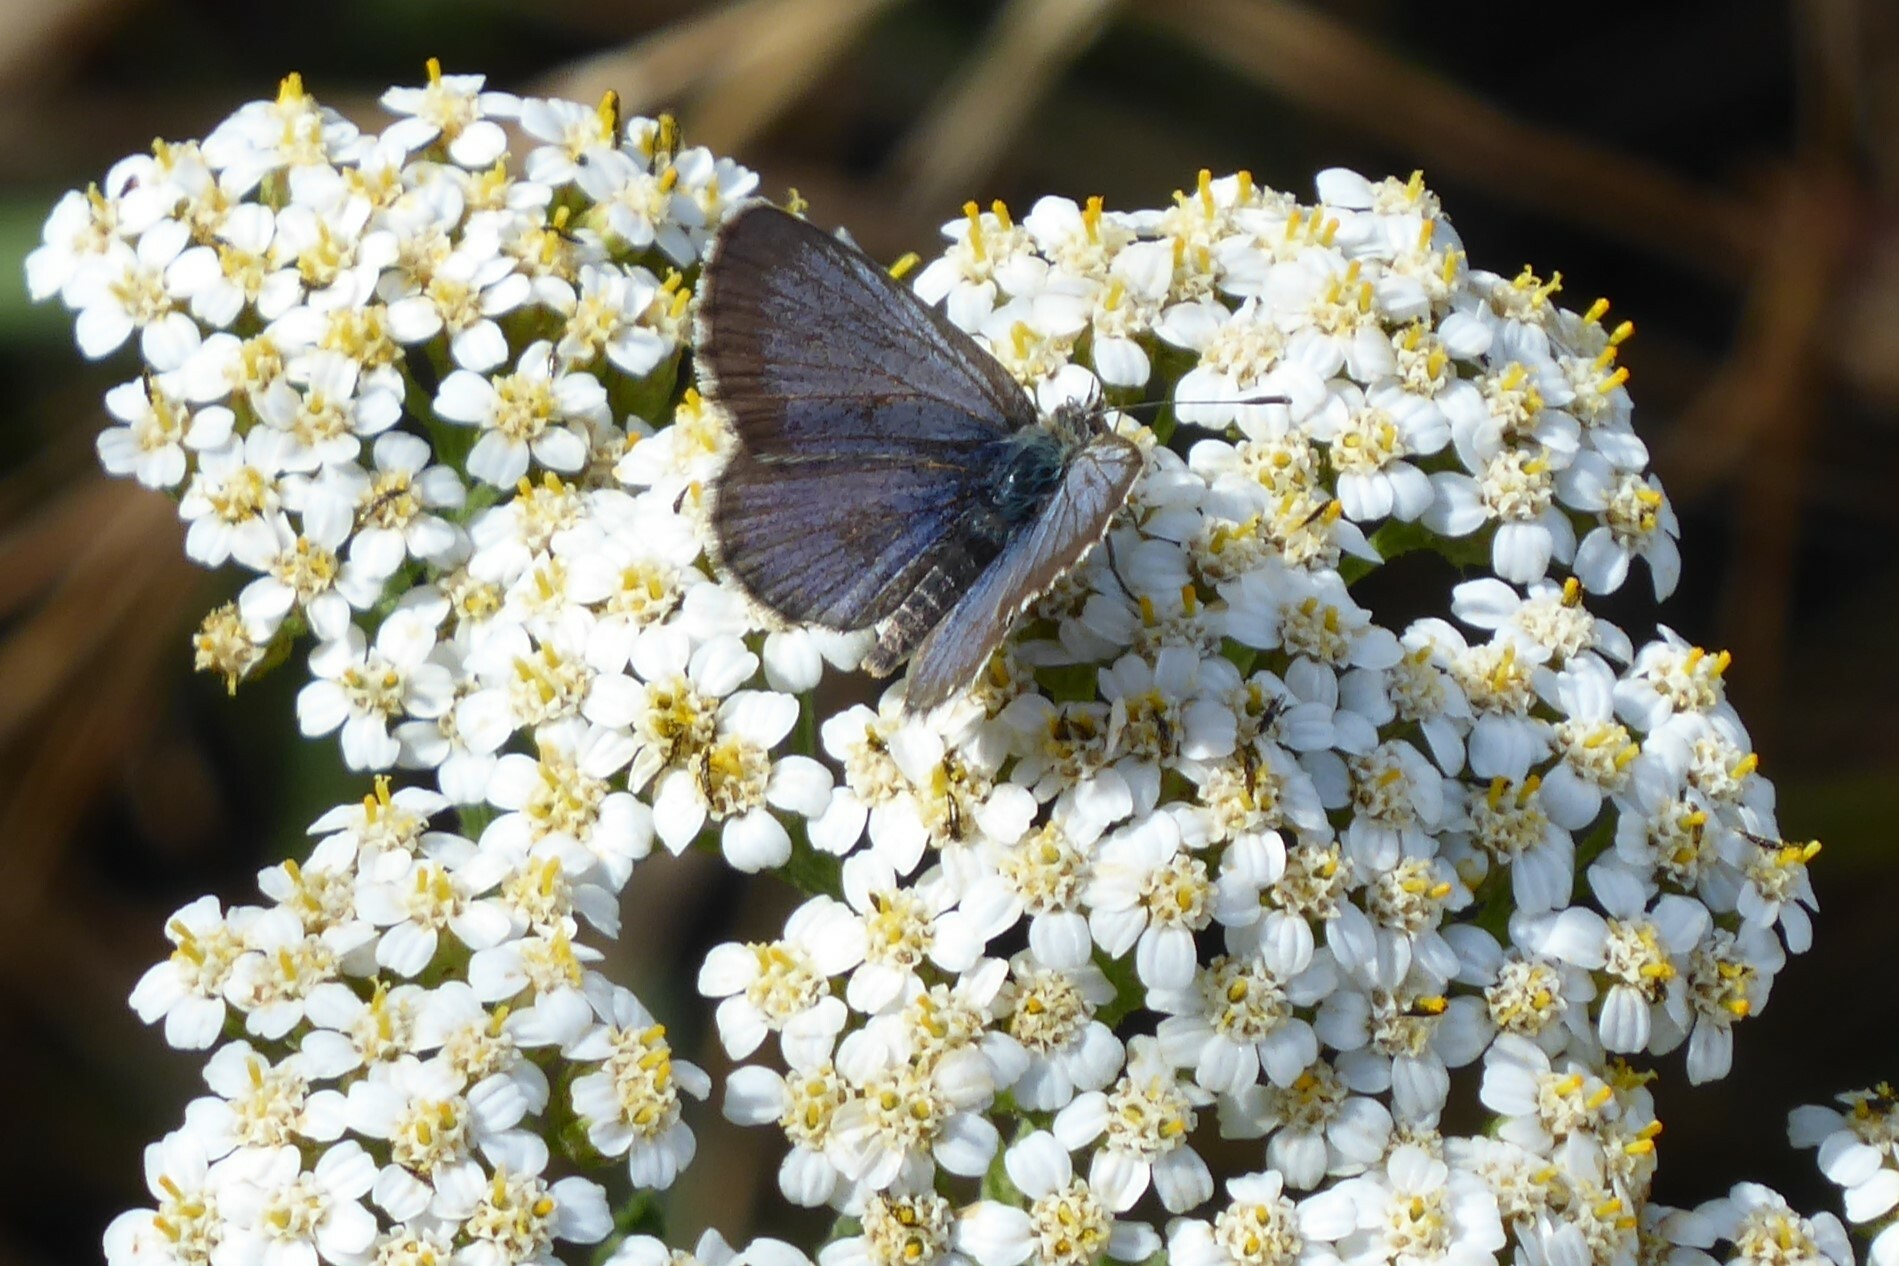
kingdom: Animalia
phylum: Arthropoda
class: Insecta
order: Lepidoptera
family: Lycaenidae
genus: Zizina
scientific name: Zizina oxleyi
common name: Southern blue
